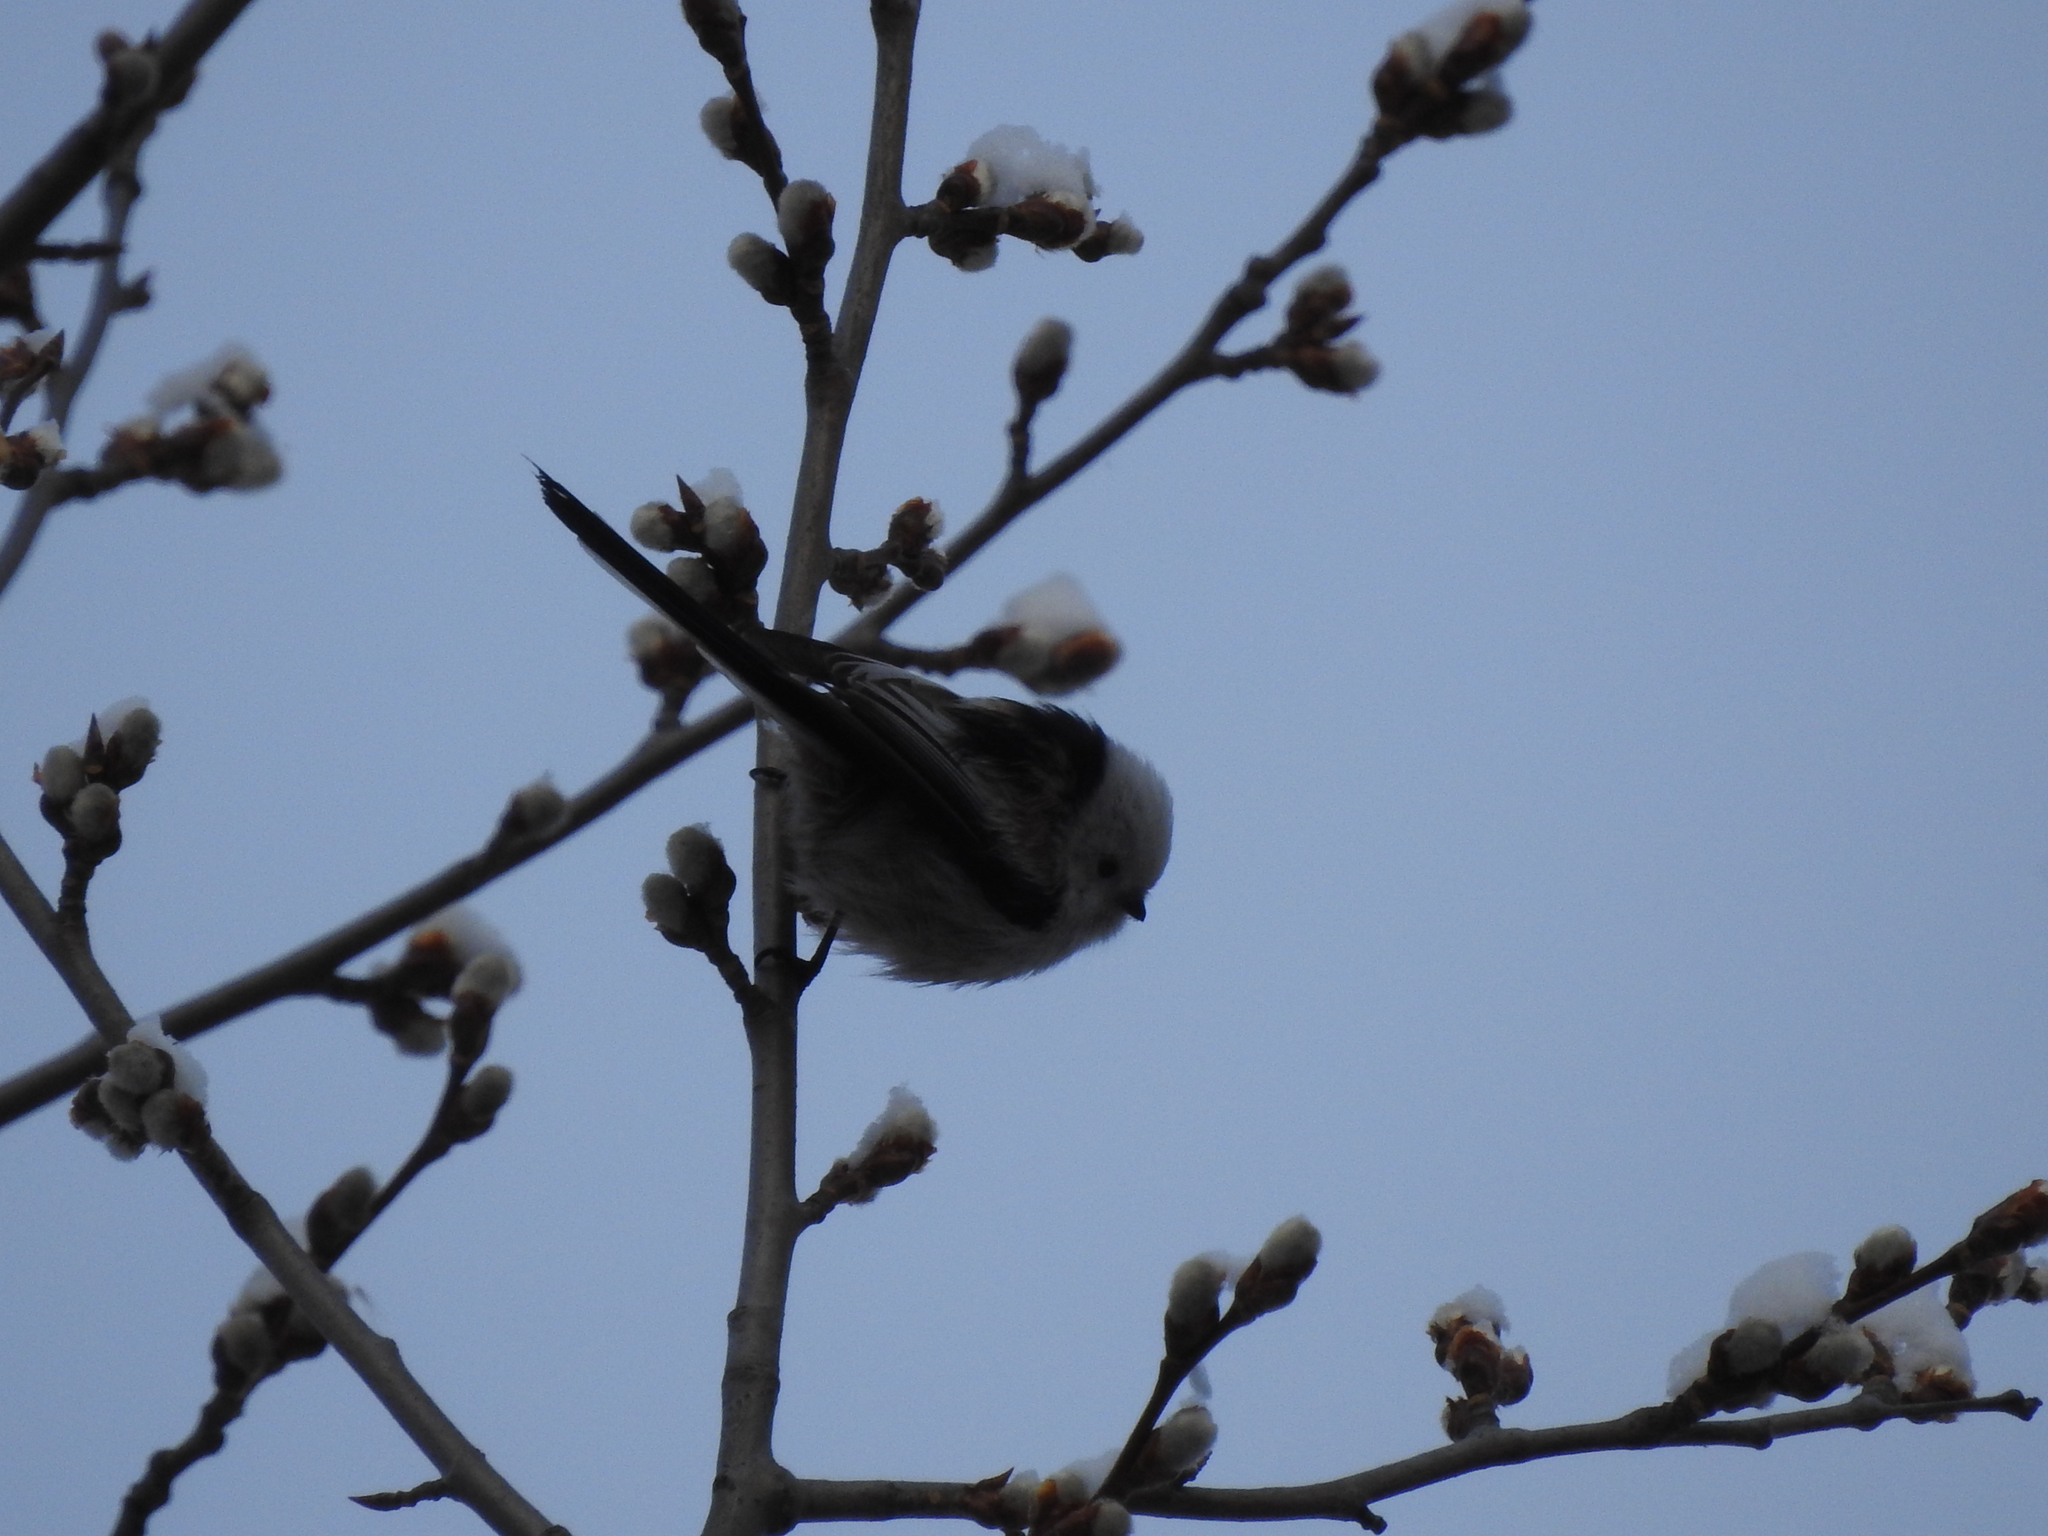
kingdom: Animalia
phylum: Chordata
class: Aves
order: Passeriformes
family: Aegithalidae
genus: Aegithalos
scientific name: Aegithalos caudatus
